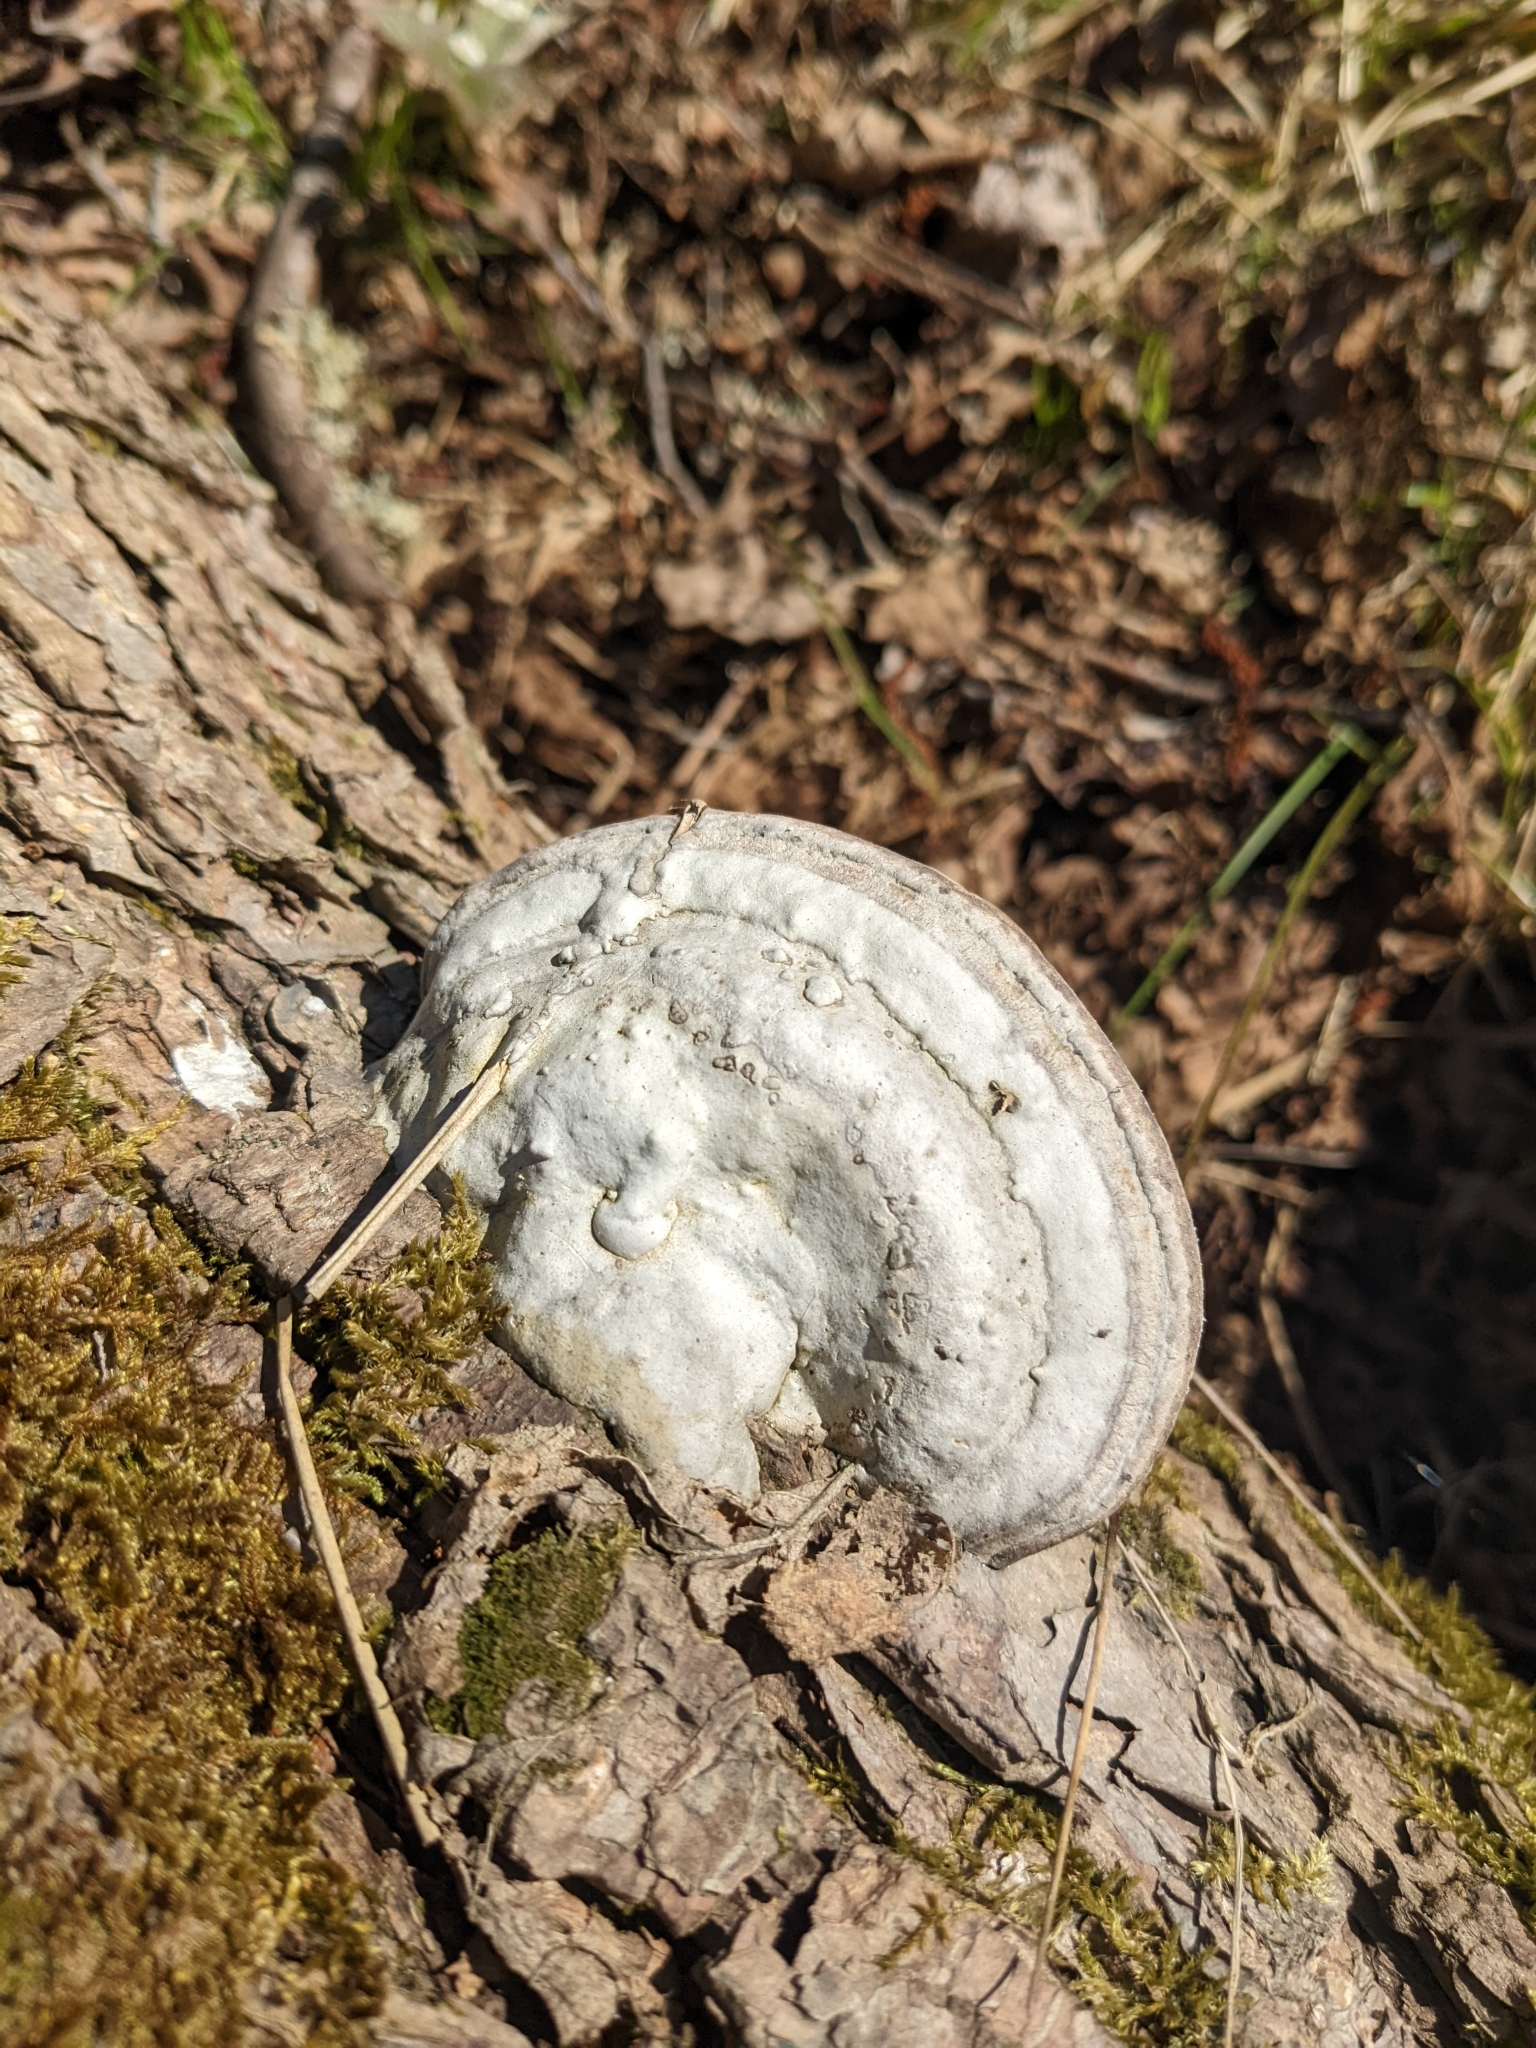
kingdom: Fungi
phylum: Basidiomycota
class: Agaricomycetes
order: Polyporales
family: Polyporaceae
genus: Fomes
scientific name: Fomes fomentarius
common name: Hoof fungus
